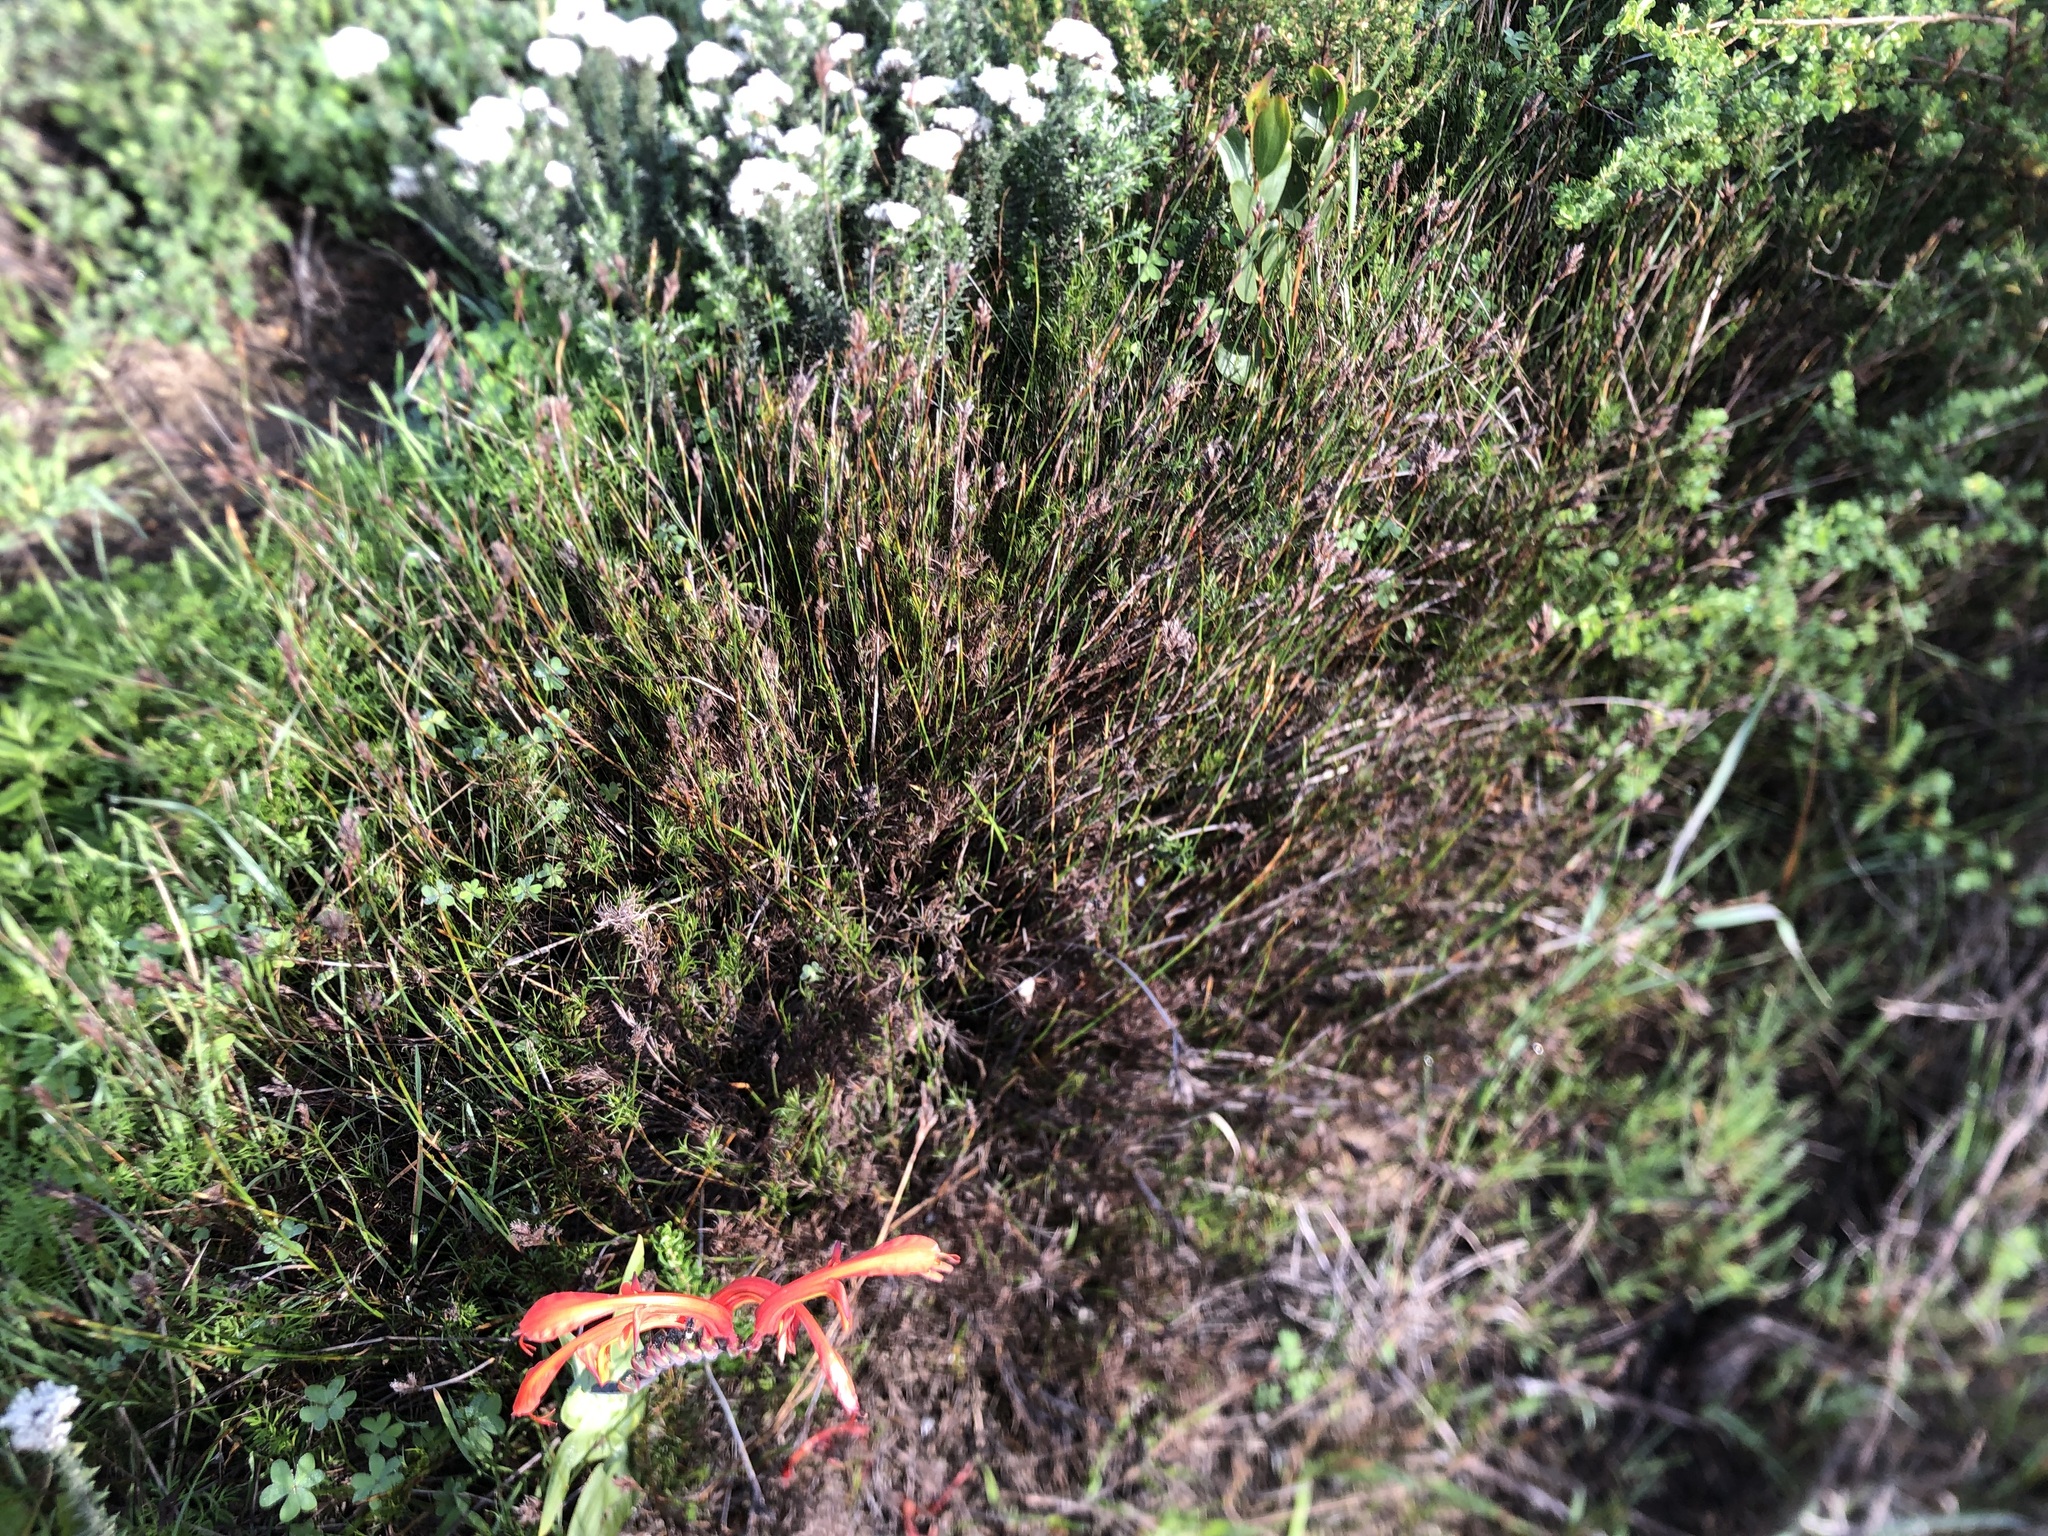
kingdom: Plantae
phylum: Tracheophyta
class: Liliopsida
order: Poales
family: Restionaceae
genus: Restio
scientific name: Restio capensis
